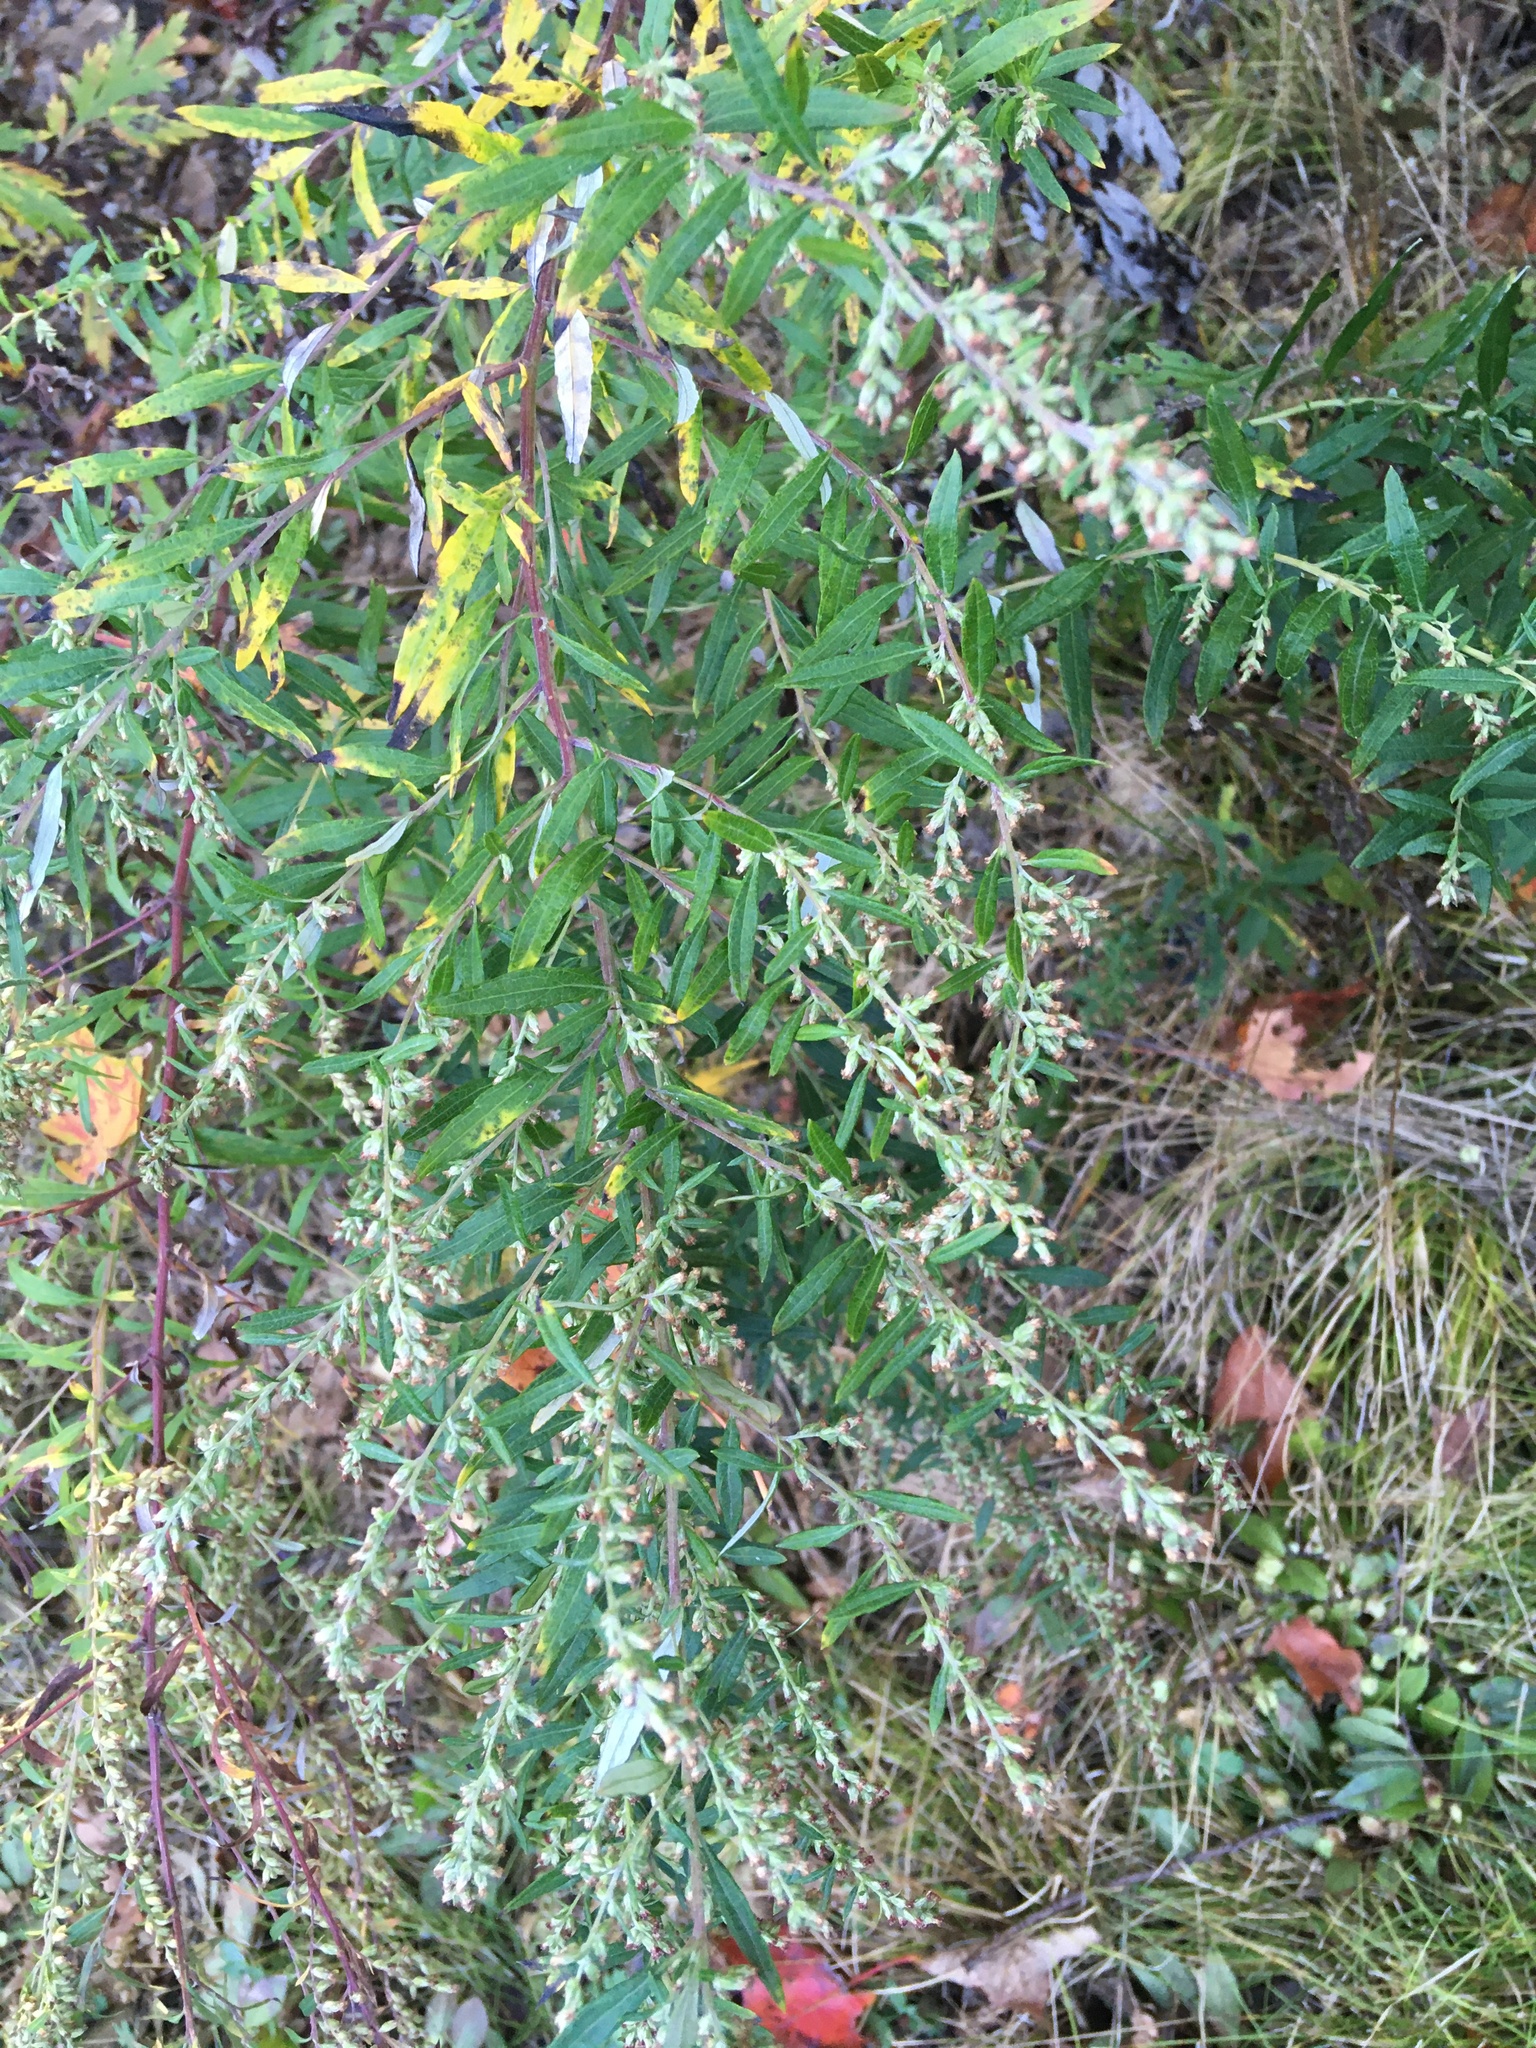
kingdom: Plantae
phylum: Tracheophyta
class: Magnoliopsida
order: Asterales
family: Asteraceae
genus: Artemisia
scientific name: Artemisia vulgaris
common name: Mugwort
